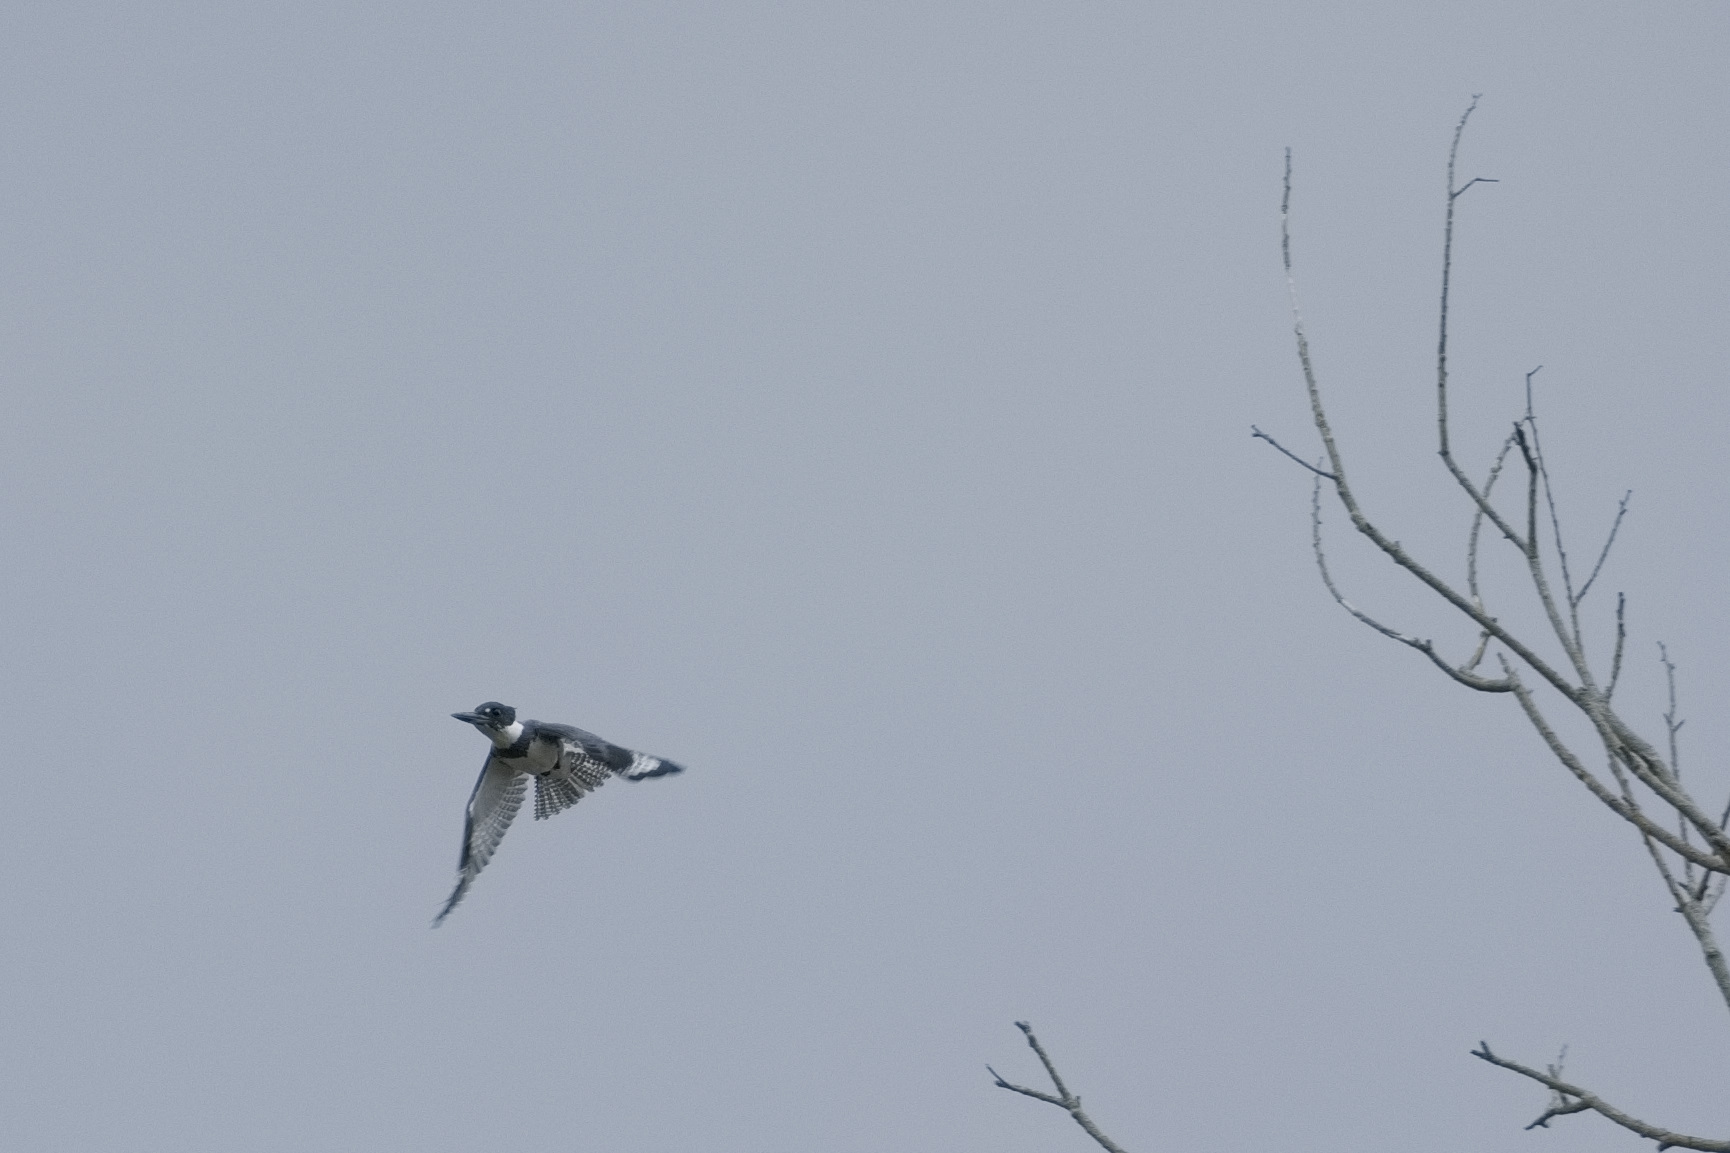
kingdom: Animalia
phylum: Chordata
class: Aves
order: Coraciiformes
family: Alcedinidae
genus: Megaceryle
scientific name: Megaceryle alcyon
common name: Belted kingfisher
